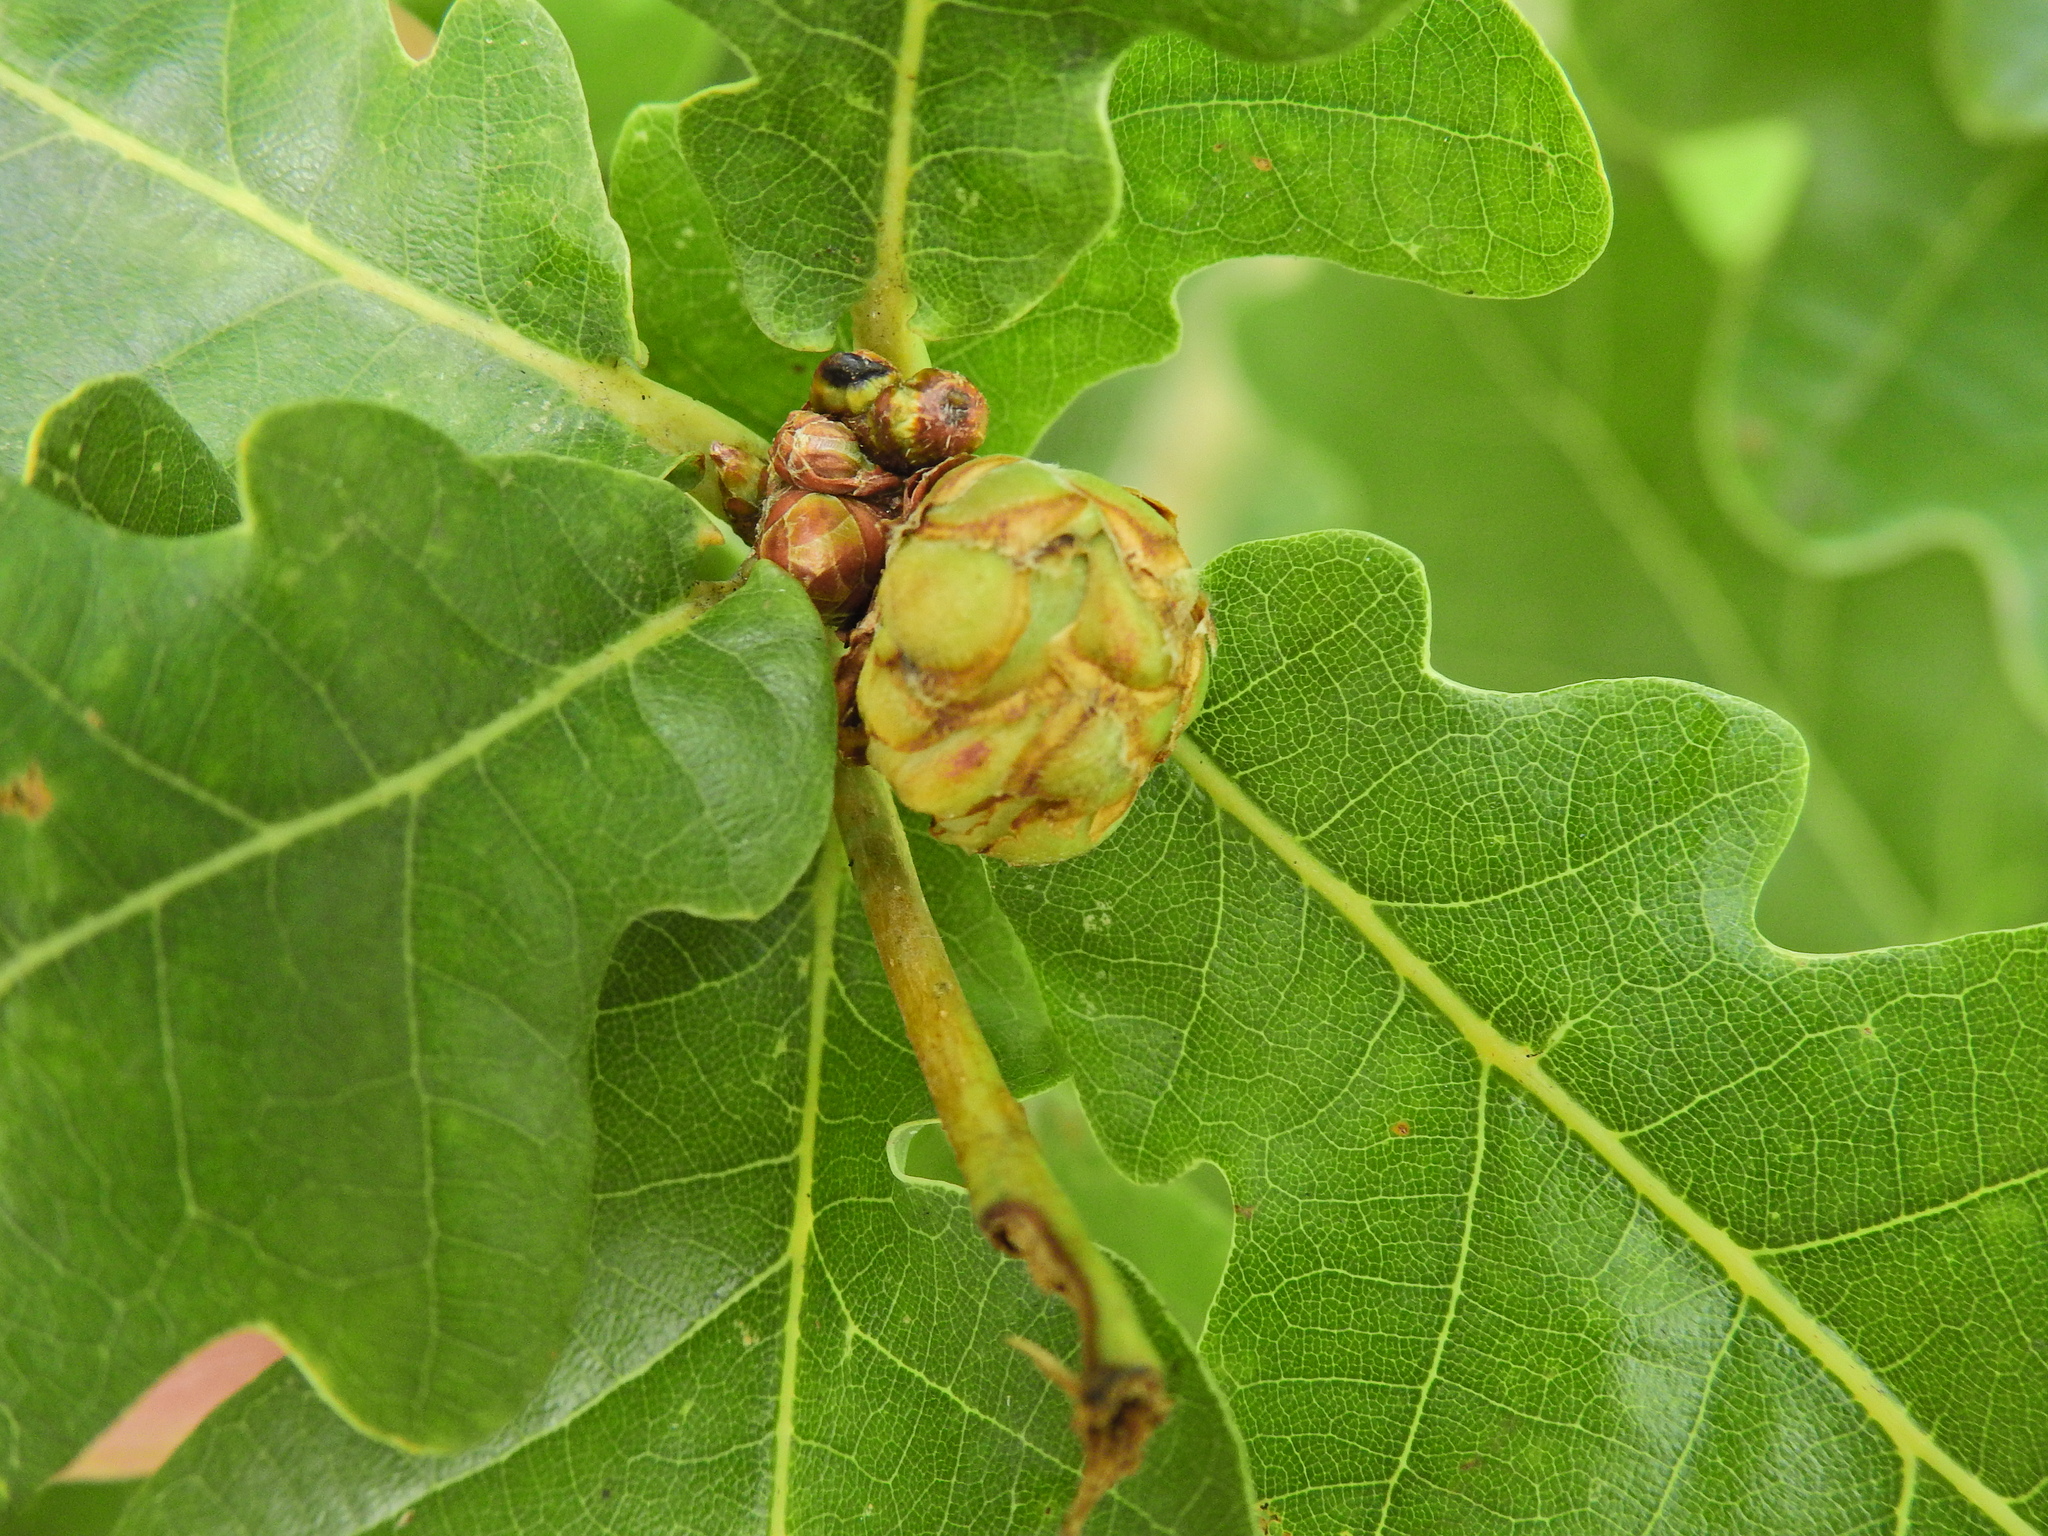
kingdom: Animalia
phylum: Arthropoda
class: Insecta
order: Hymenoptera
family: Cynipidae
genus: Andricus
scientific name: Andricus foecundatrix
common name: Artichoke gall
